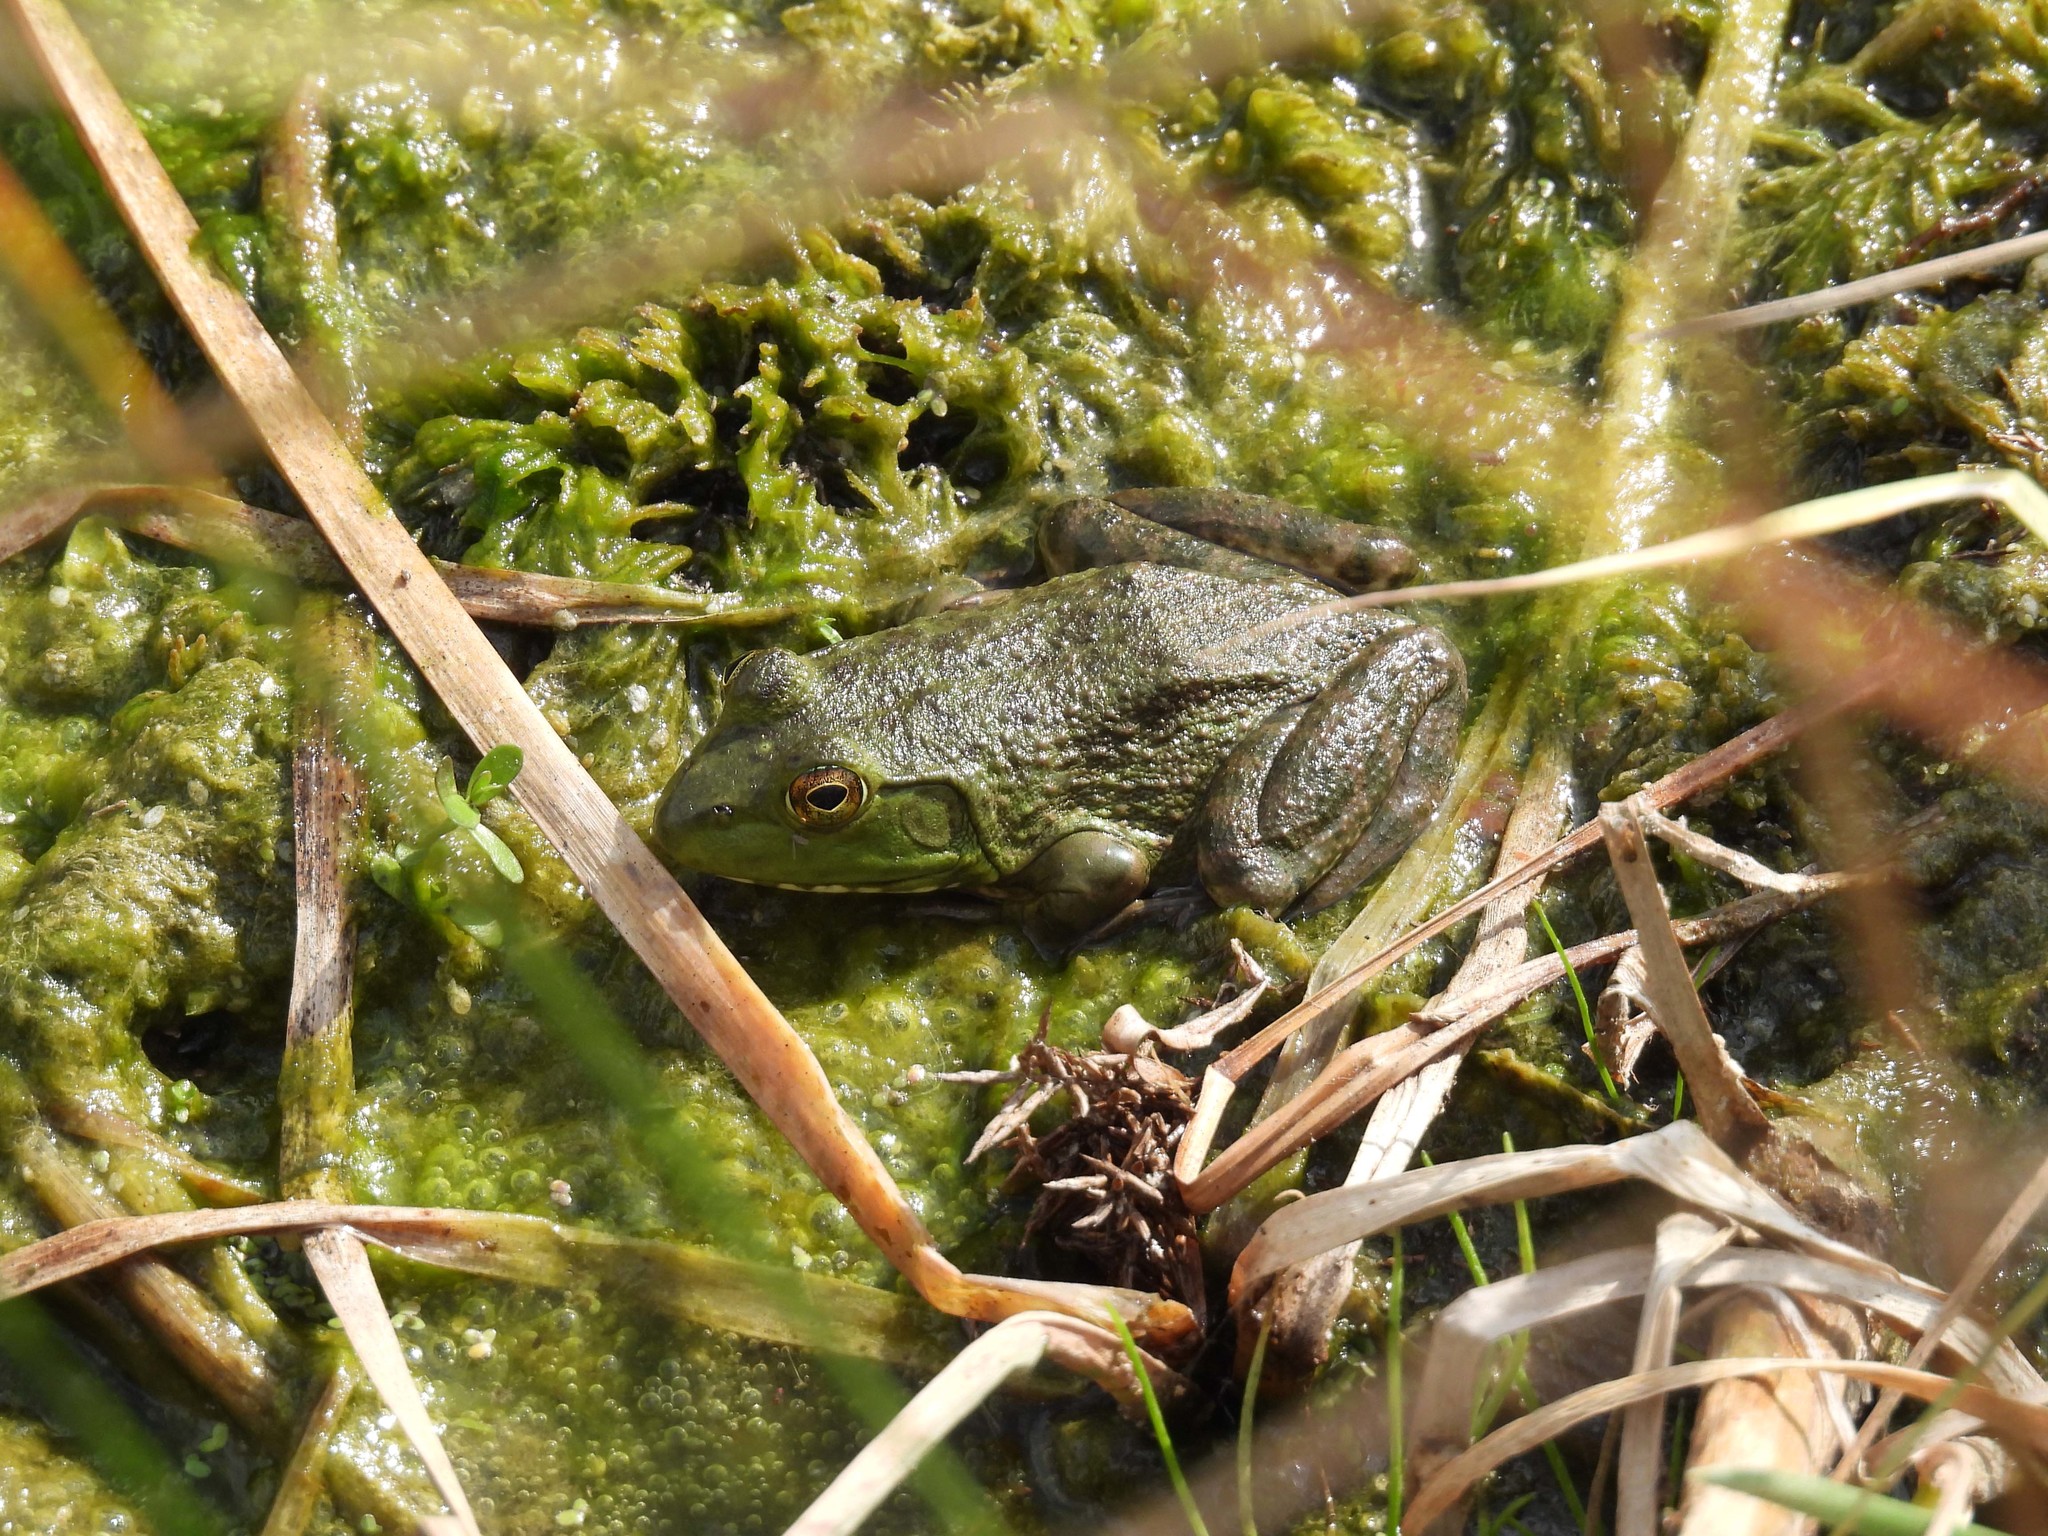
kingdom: Animalia
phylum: Chordata
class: Amphibia
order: Anura
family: Ranidae
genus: Lithobates
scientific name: Lithobates catesbeianus
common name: American bullfrog
